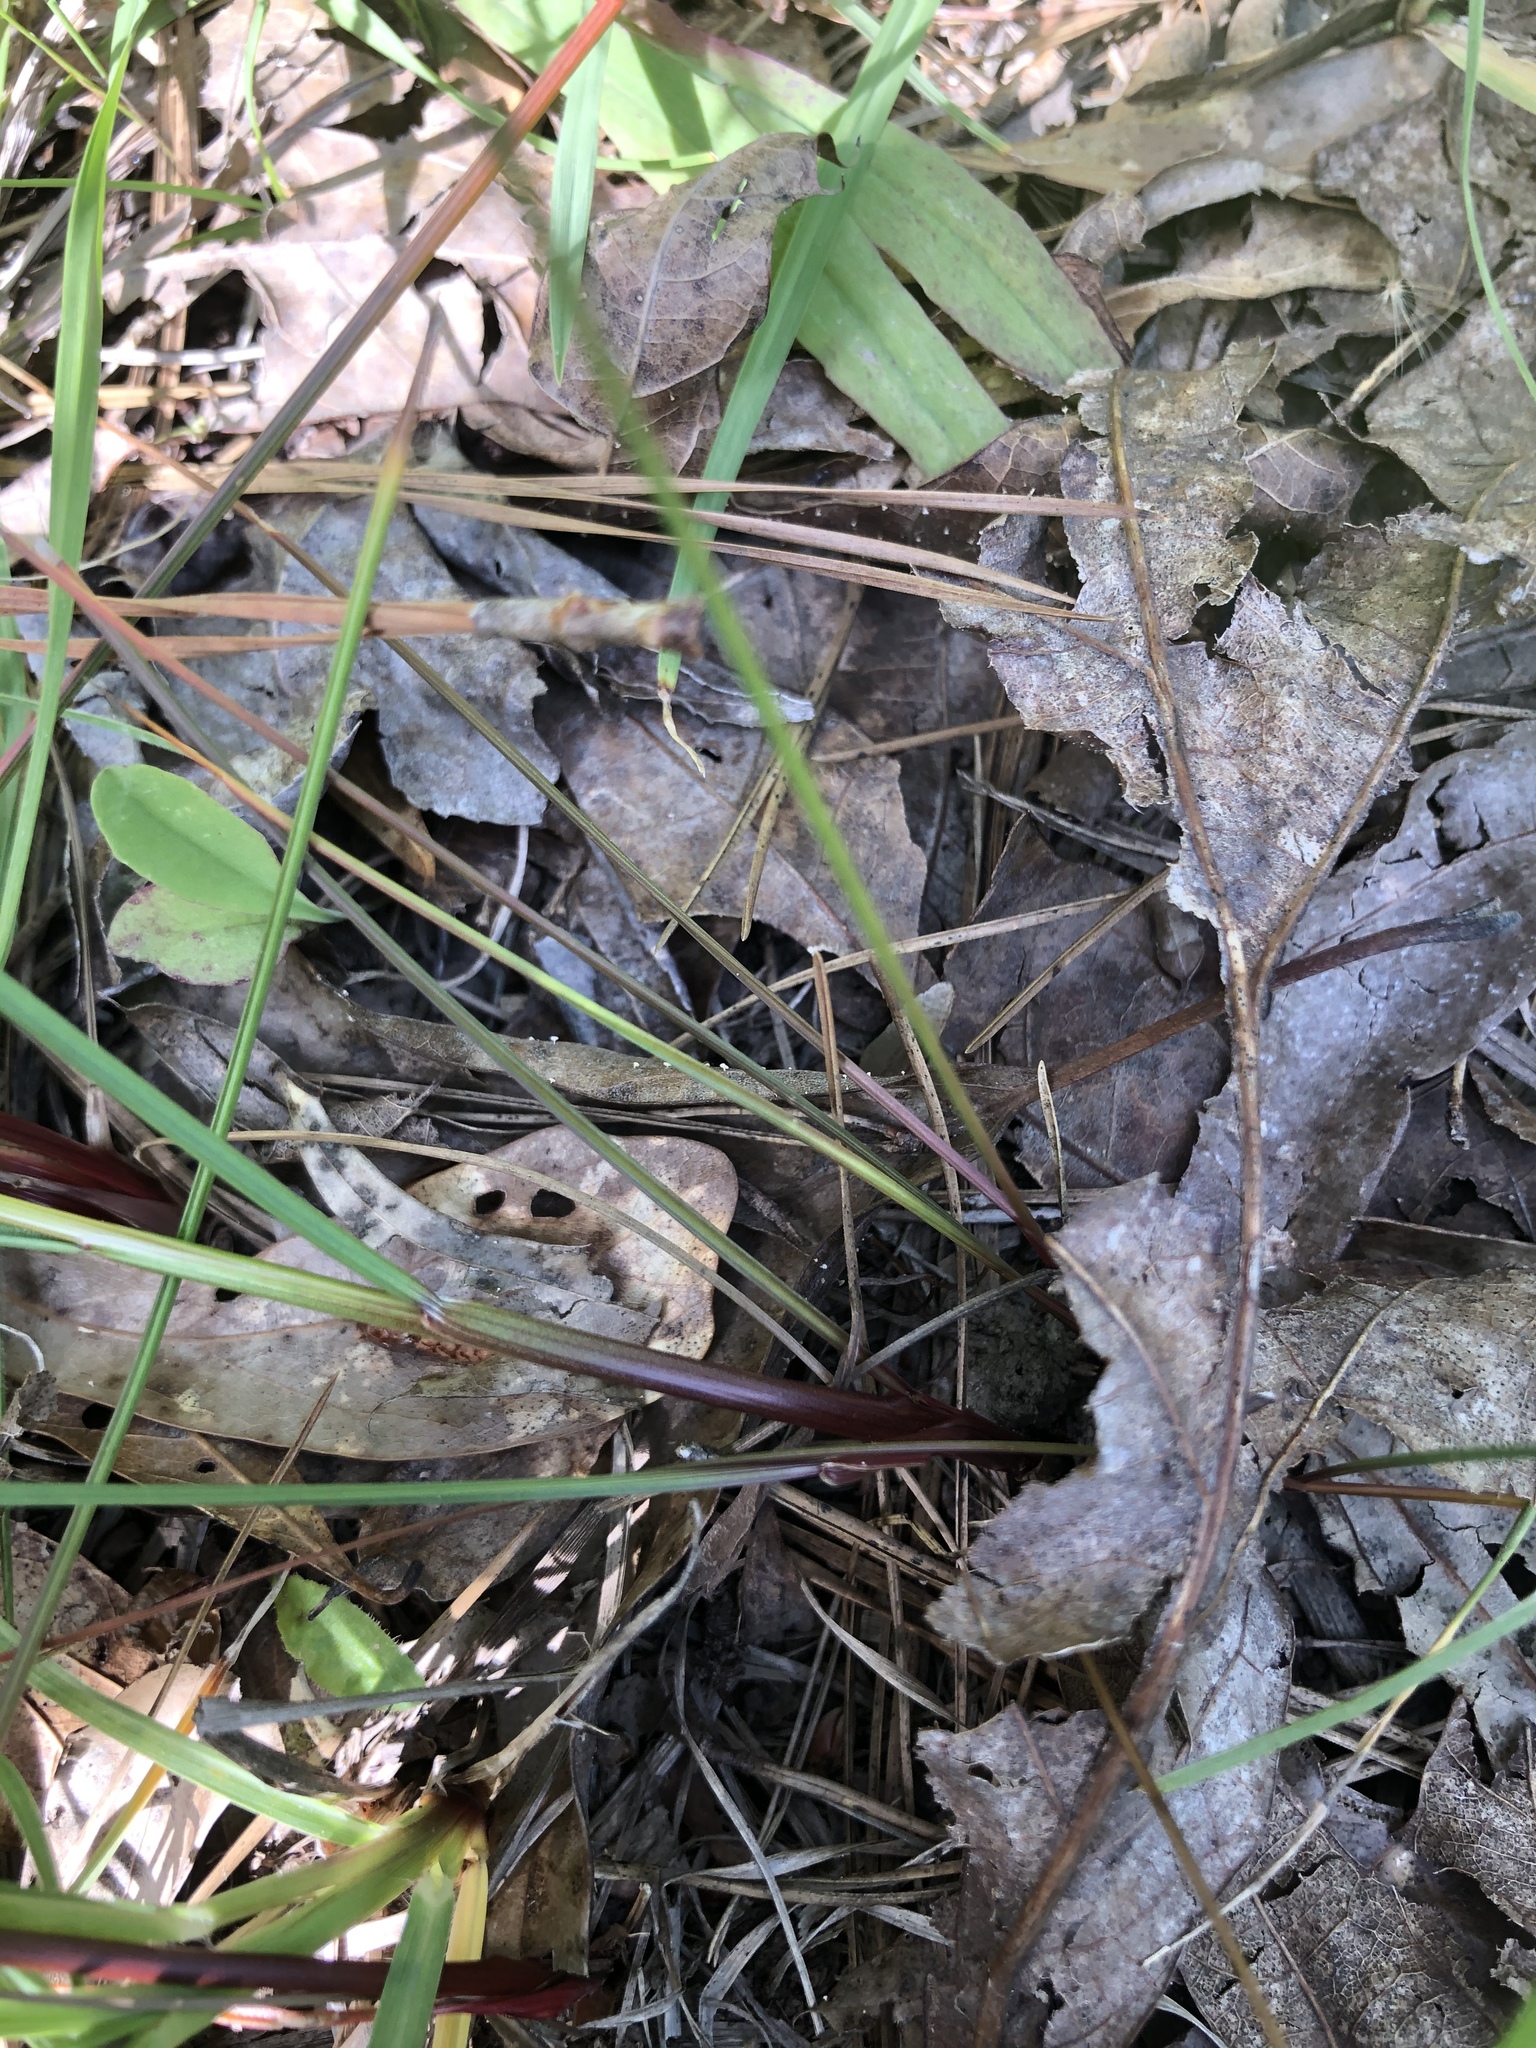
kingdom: Plantae
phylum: Tracheophyta
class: Liliopsida
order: Poales
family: Juncaceae
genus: Juncus
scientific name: Juncus dichotomus
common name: Forked rush
